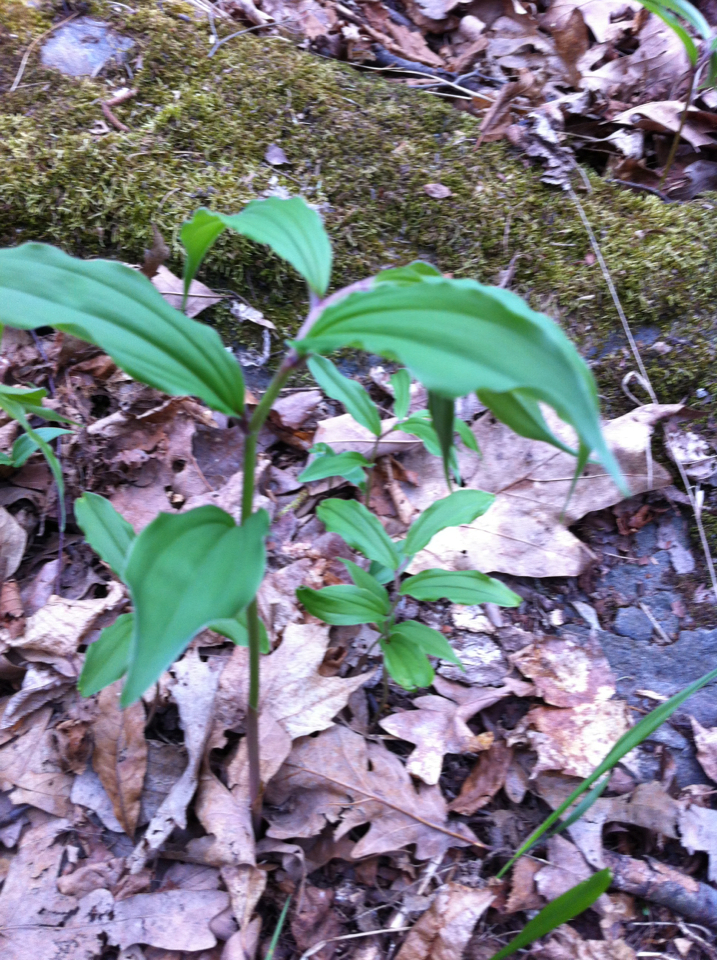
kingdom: Plantae
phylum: Tracheophyta
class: Liliopsida
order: Asparagales
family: Asparagaceae
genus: Maianthemum
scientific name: Maianthemum racemosum
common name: False spikenard
